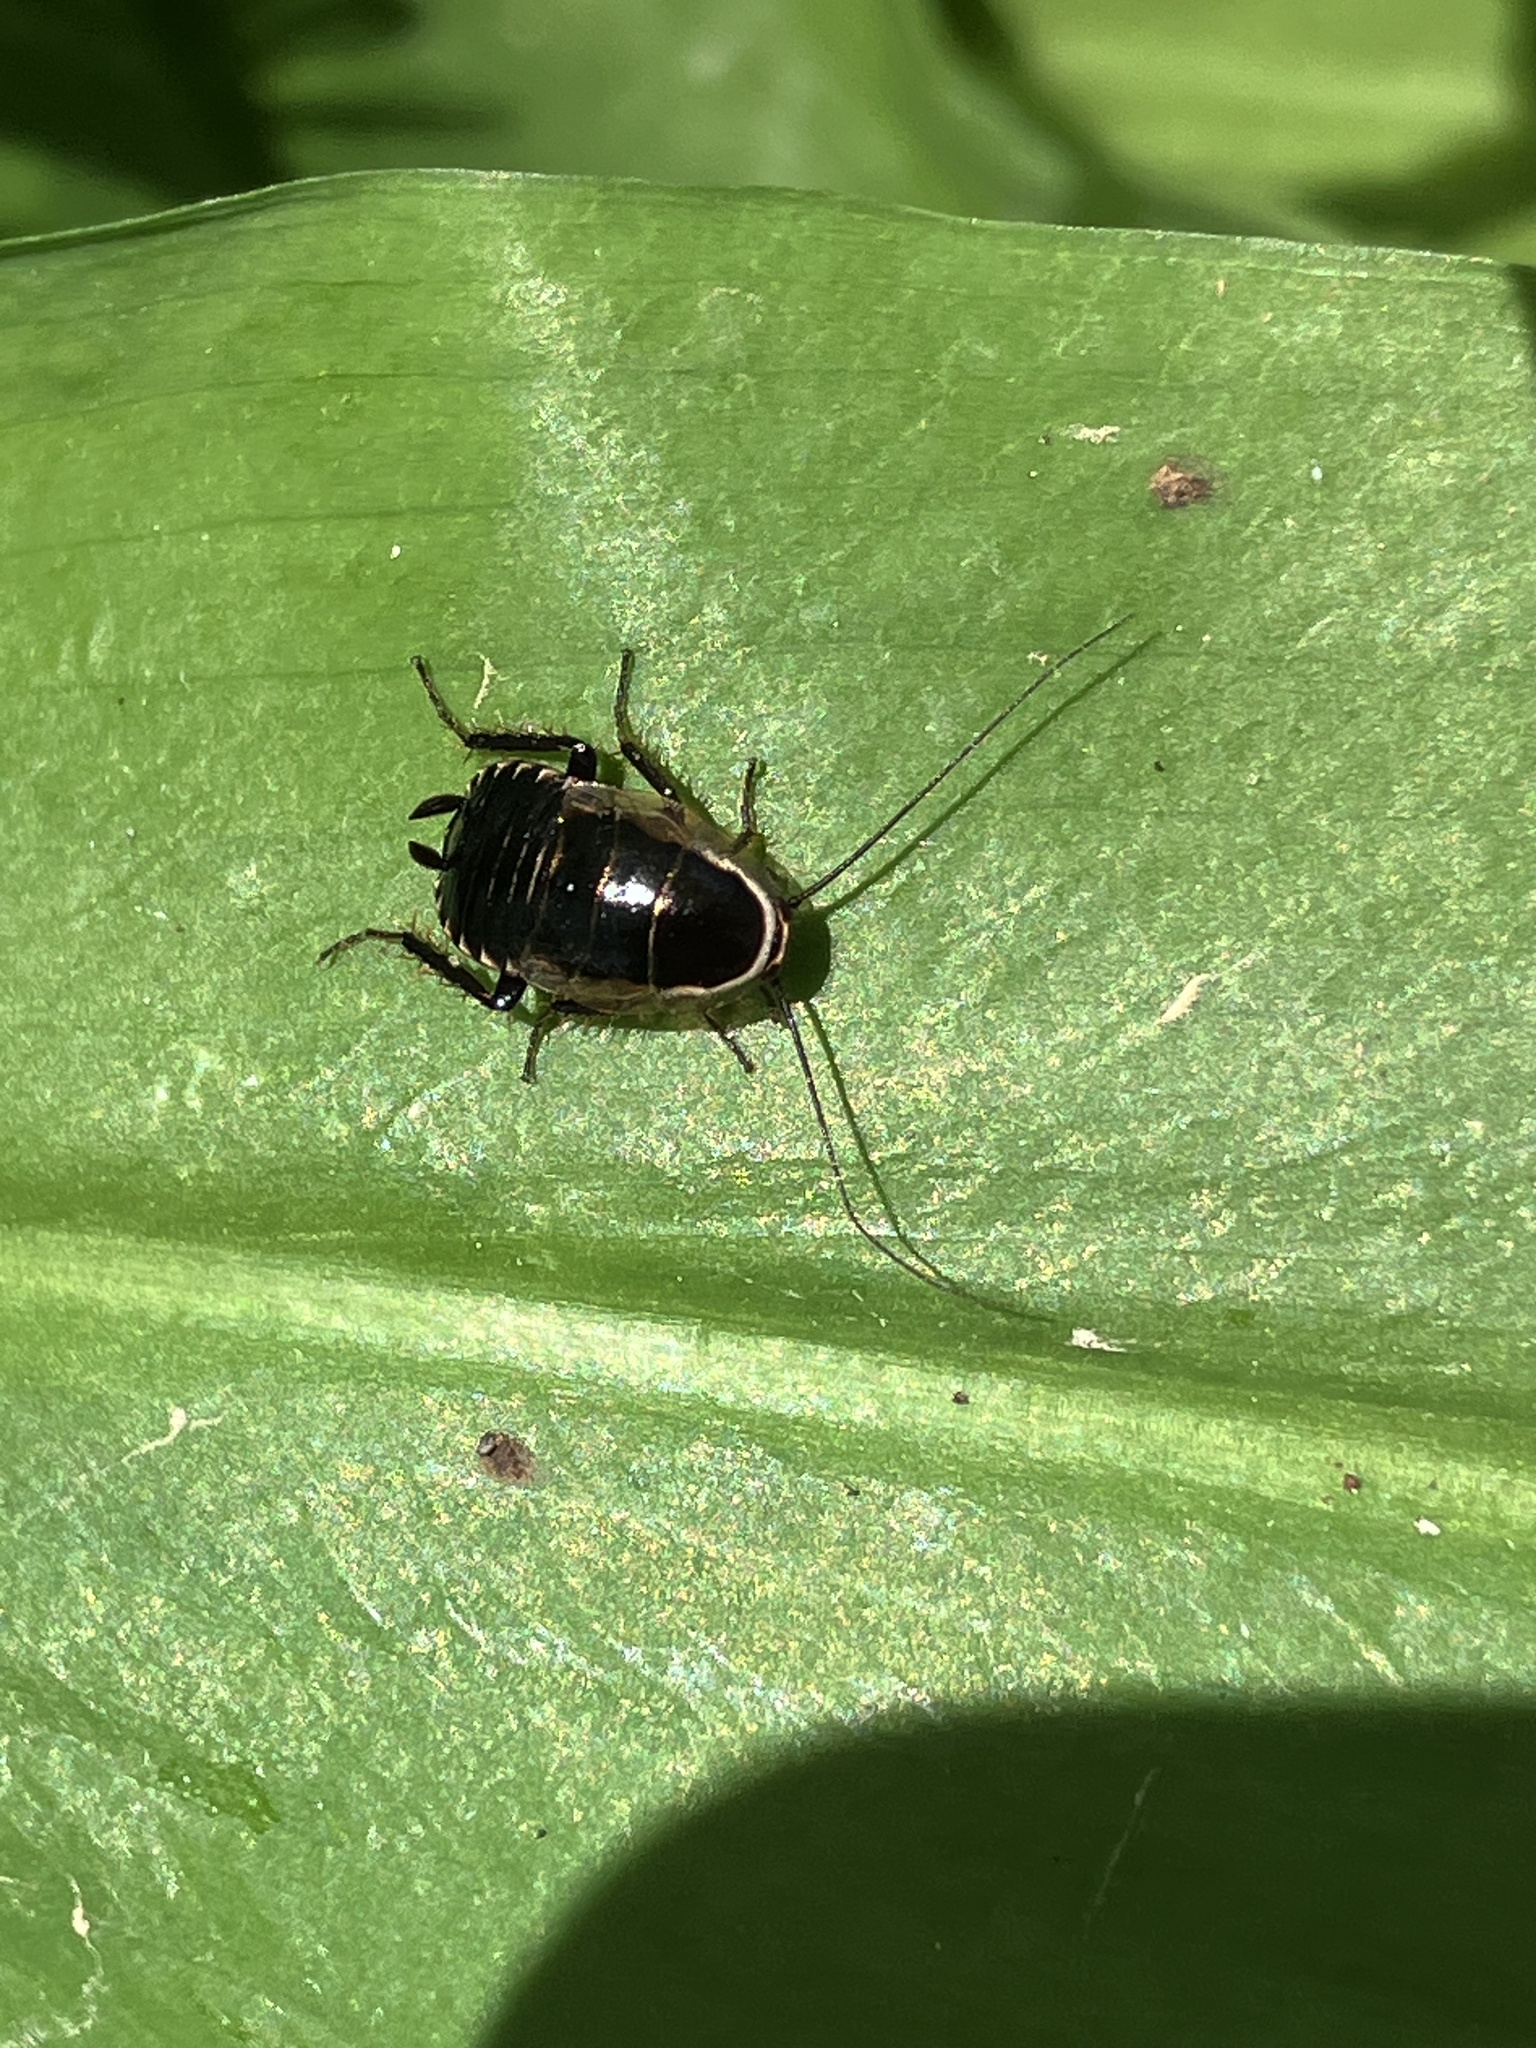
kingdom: Animalia
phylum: Arthropoda
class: Insecta
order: Blattodea
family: Ectobiidae
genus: Ectobius
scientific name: Ectobius sylvestris
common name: Forest cockroach
